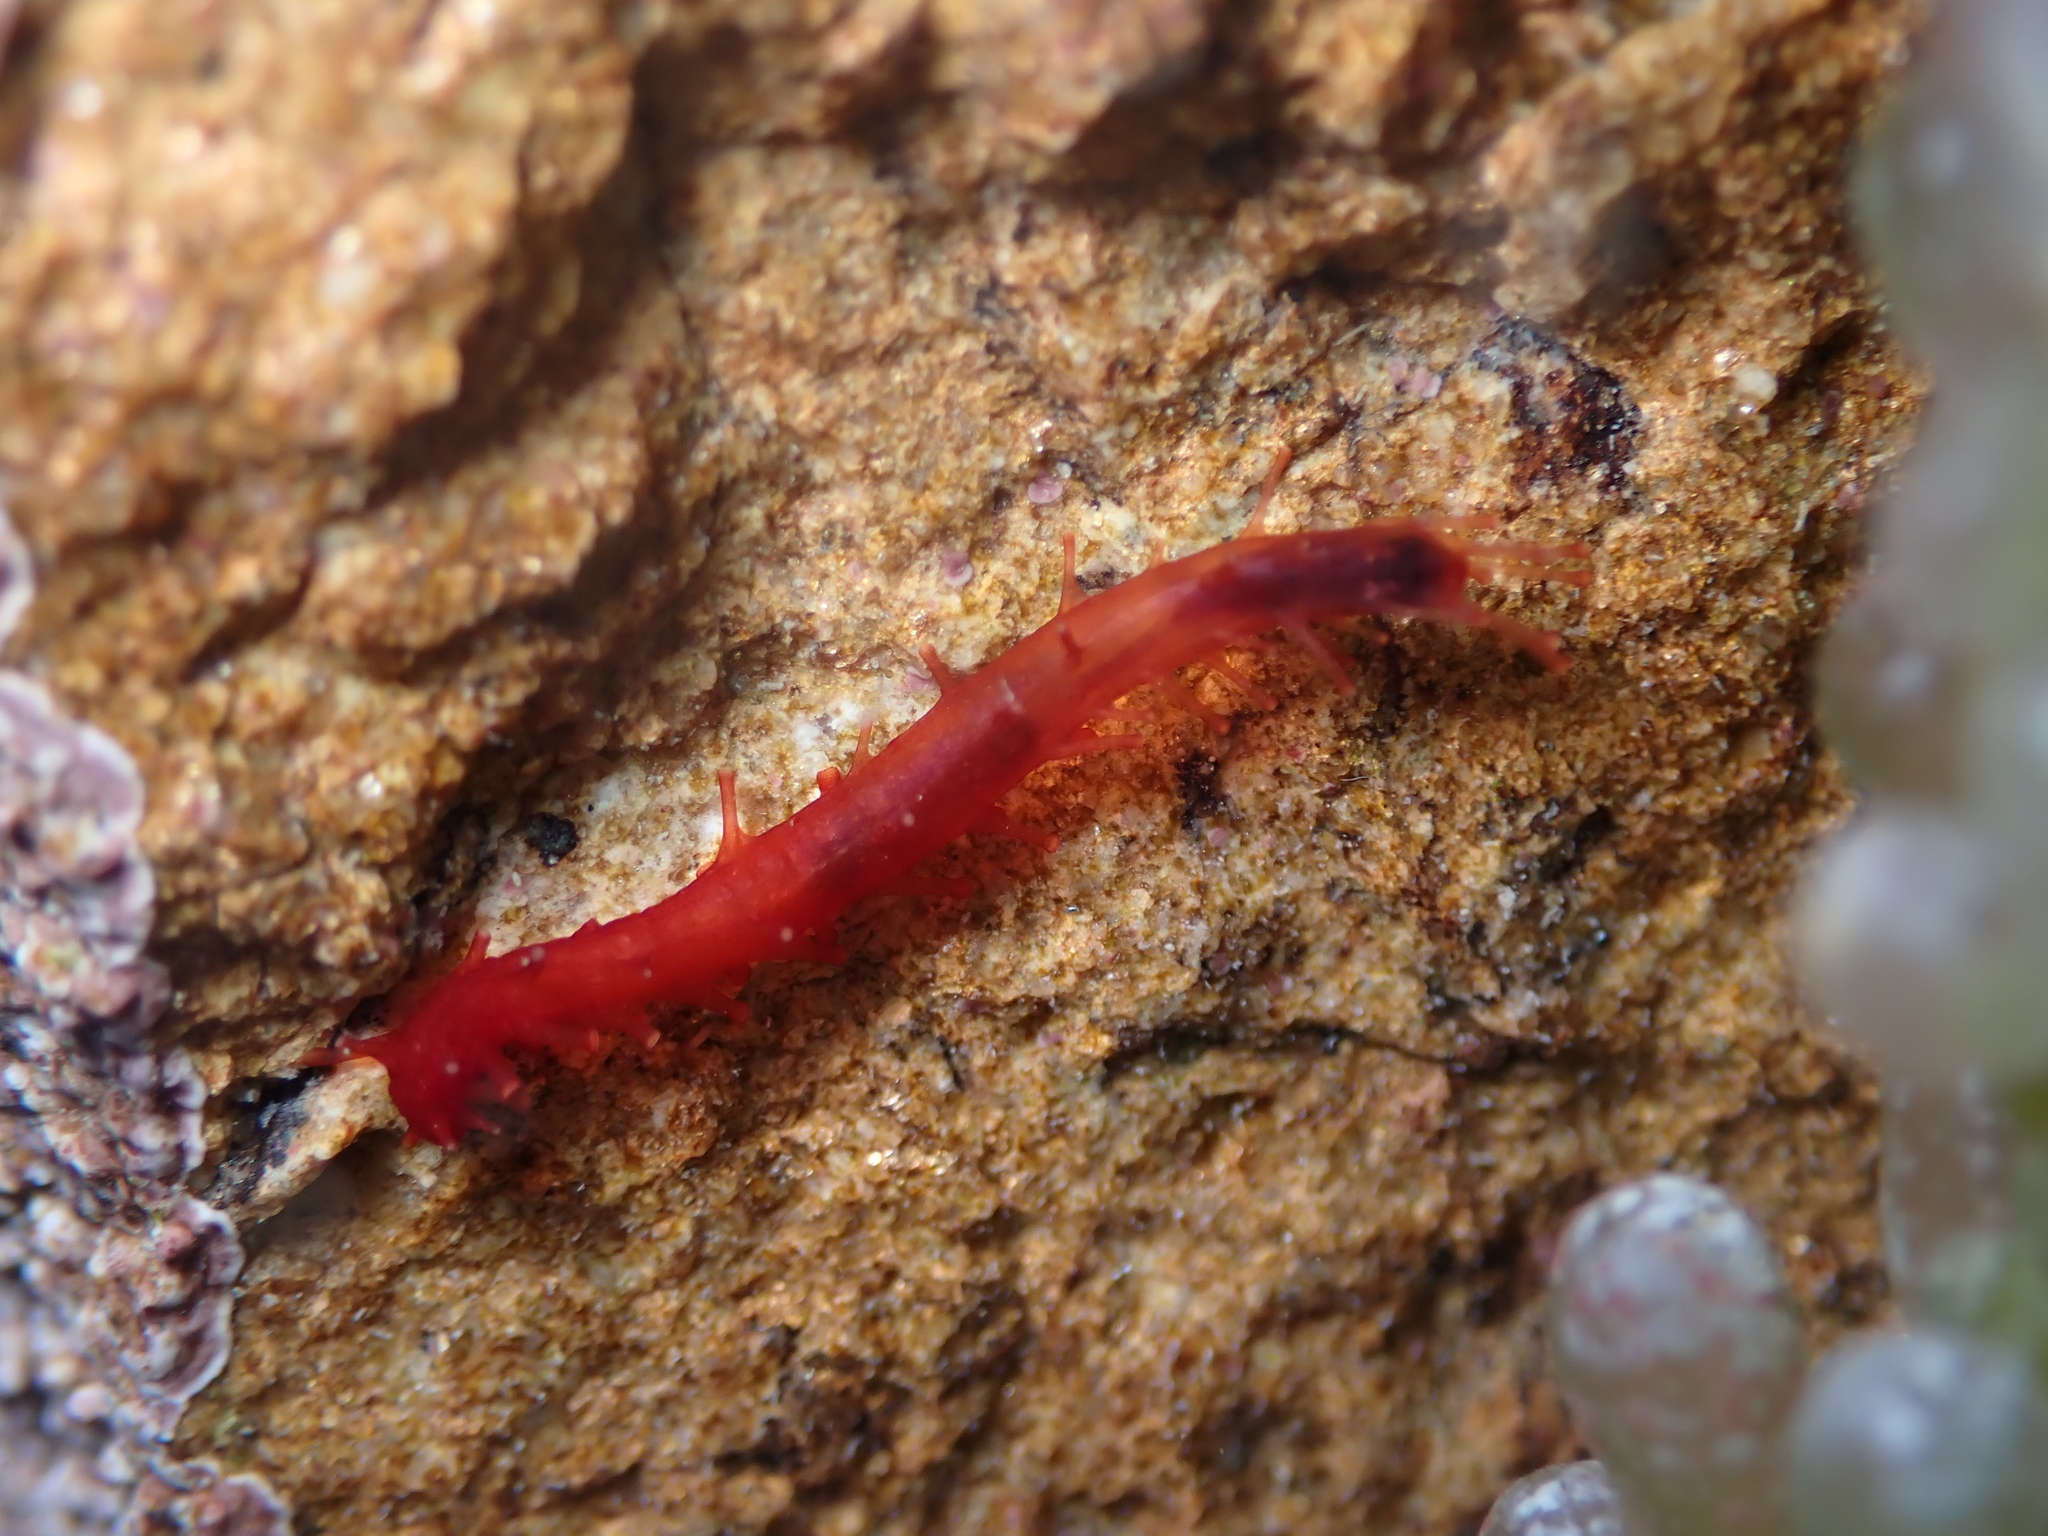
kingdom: Animalia
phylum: Echinodermata
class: Holothuroidea
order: Dendrochirotida
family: Cucumariidae
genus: Squamocnus
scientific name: Squamocnus brevidentis
